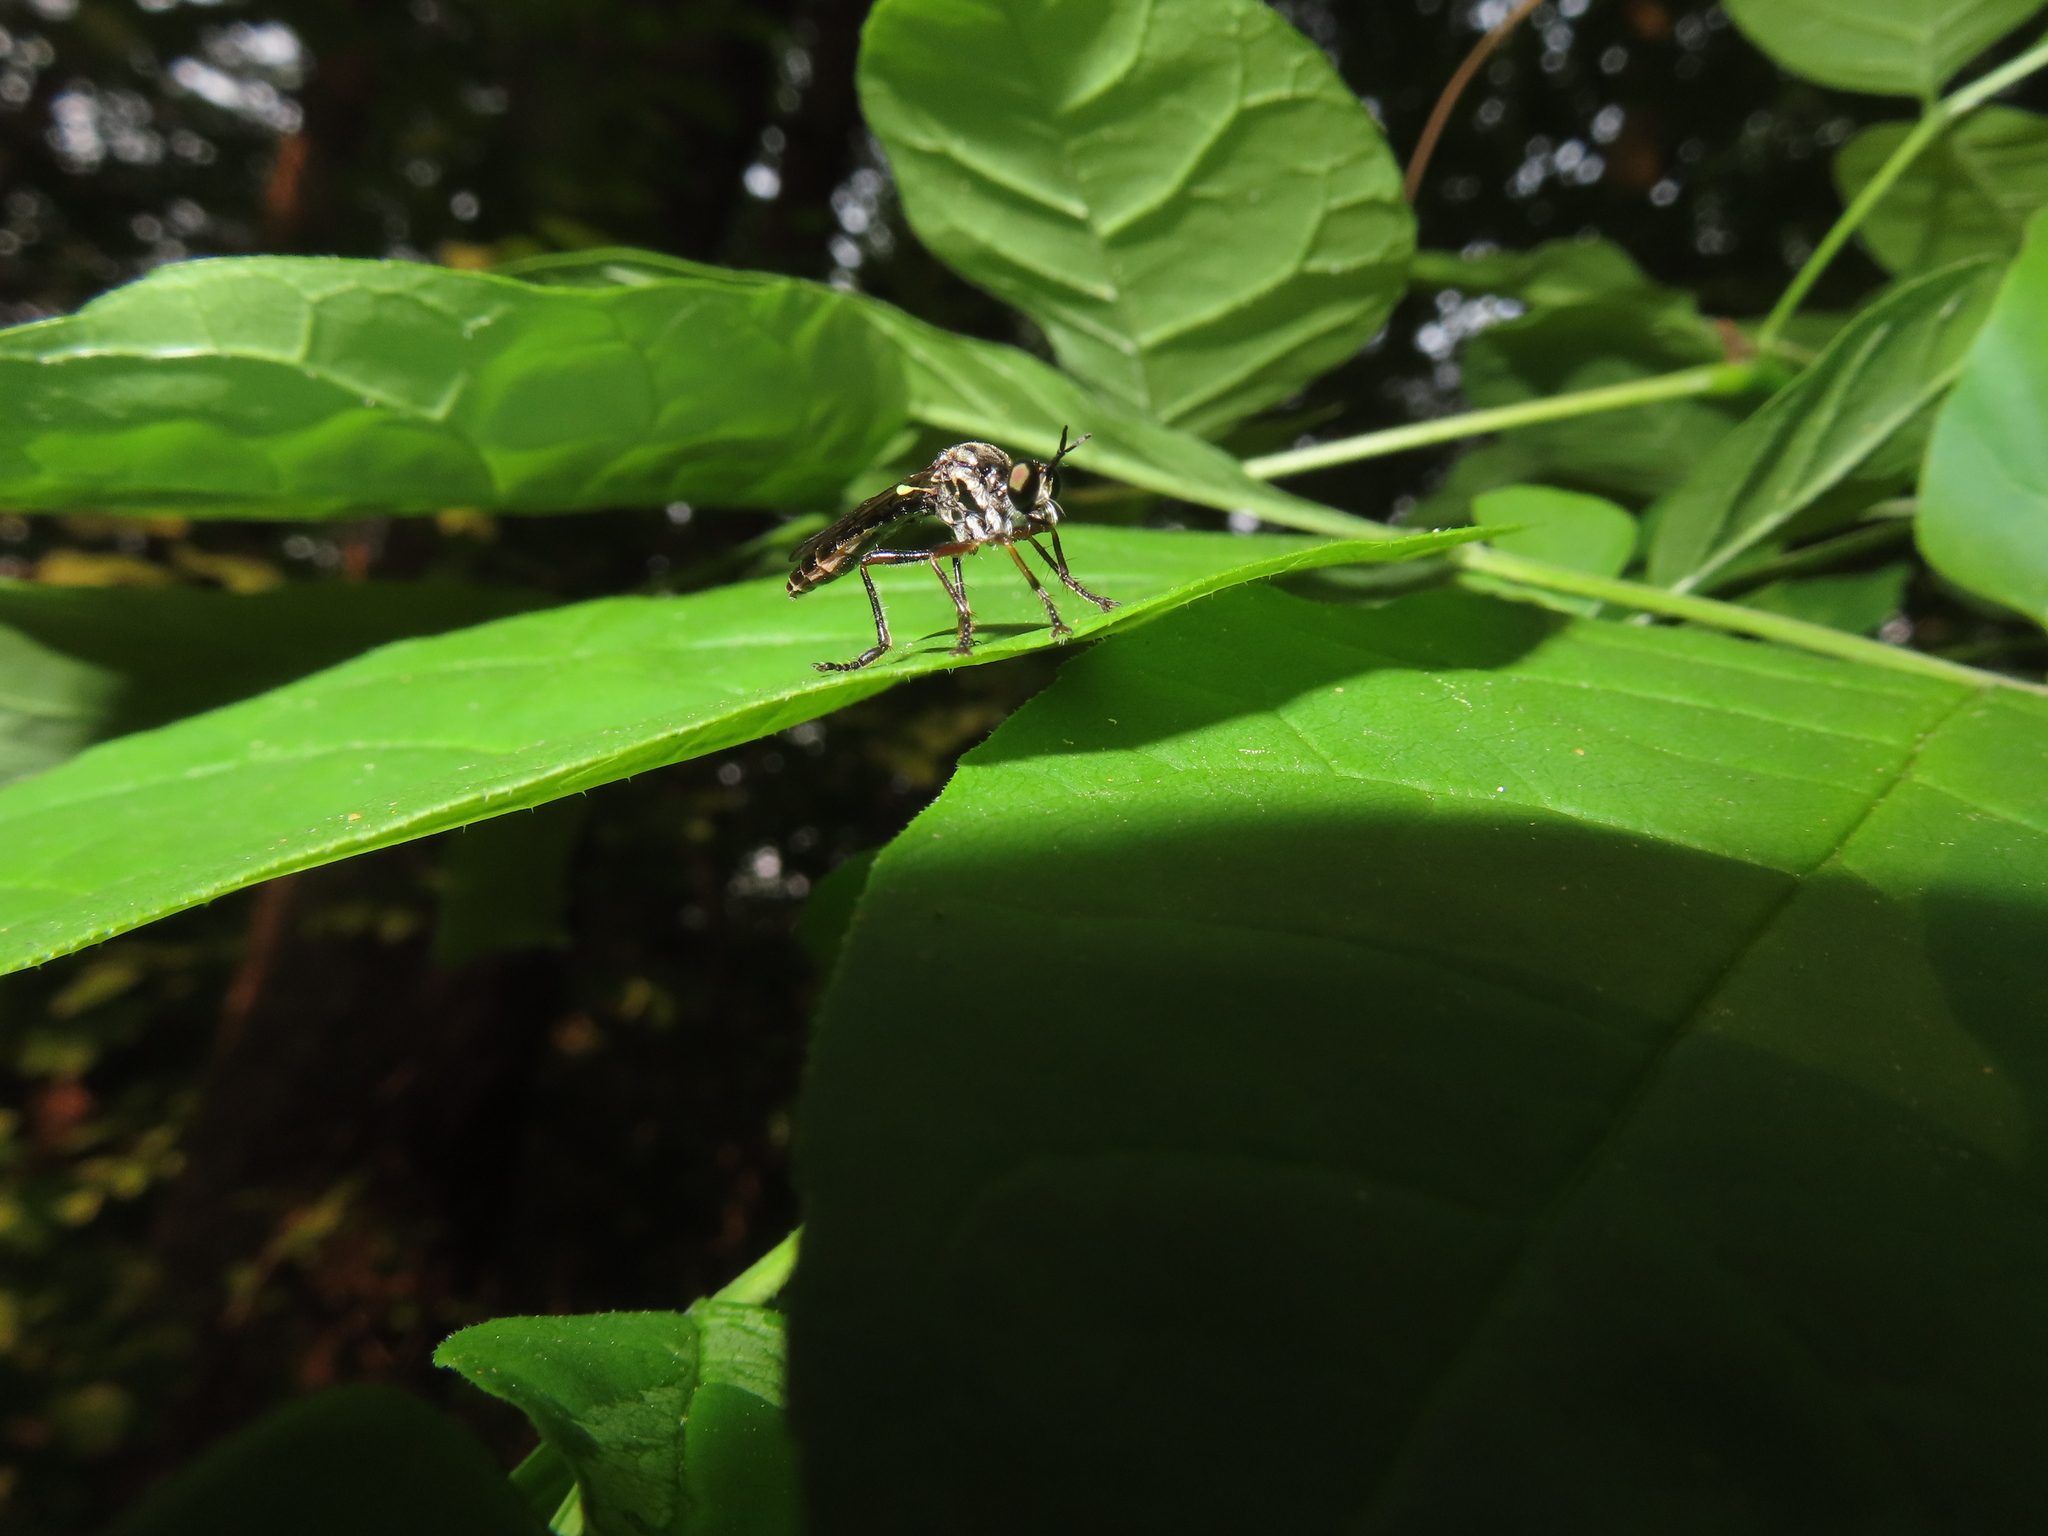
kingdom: Animalia
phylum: Arthropoda
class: Insecta
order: Diptera
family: Asilidae
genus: Dioctria
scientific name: Dioctria hyalipennis
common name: Stripe-legged robberfly
